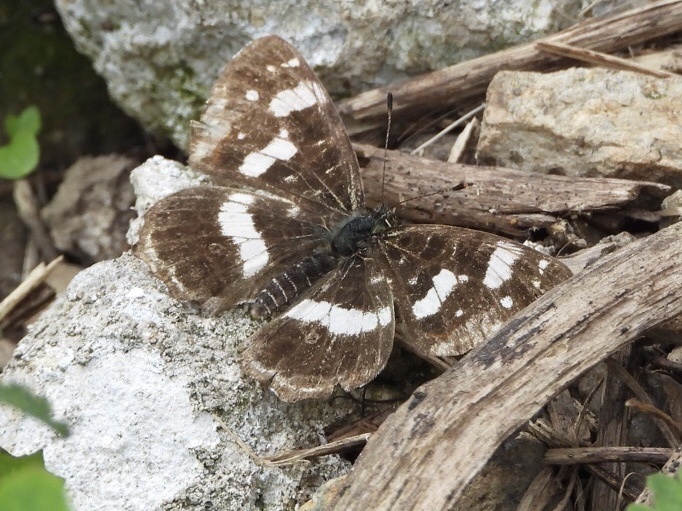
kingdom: Animalia
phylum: Arthropoda
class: Insecta
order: Lepidoptera
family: Nymphalidae
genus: Araschnia
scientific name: Araschnia levana
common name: Map butterfly
